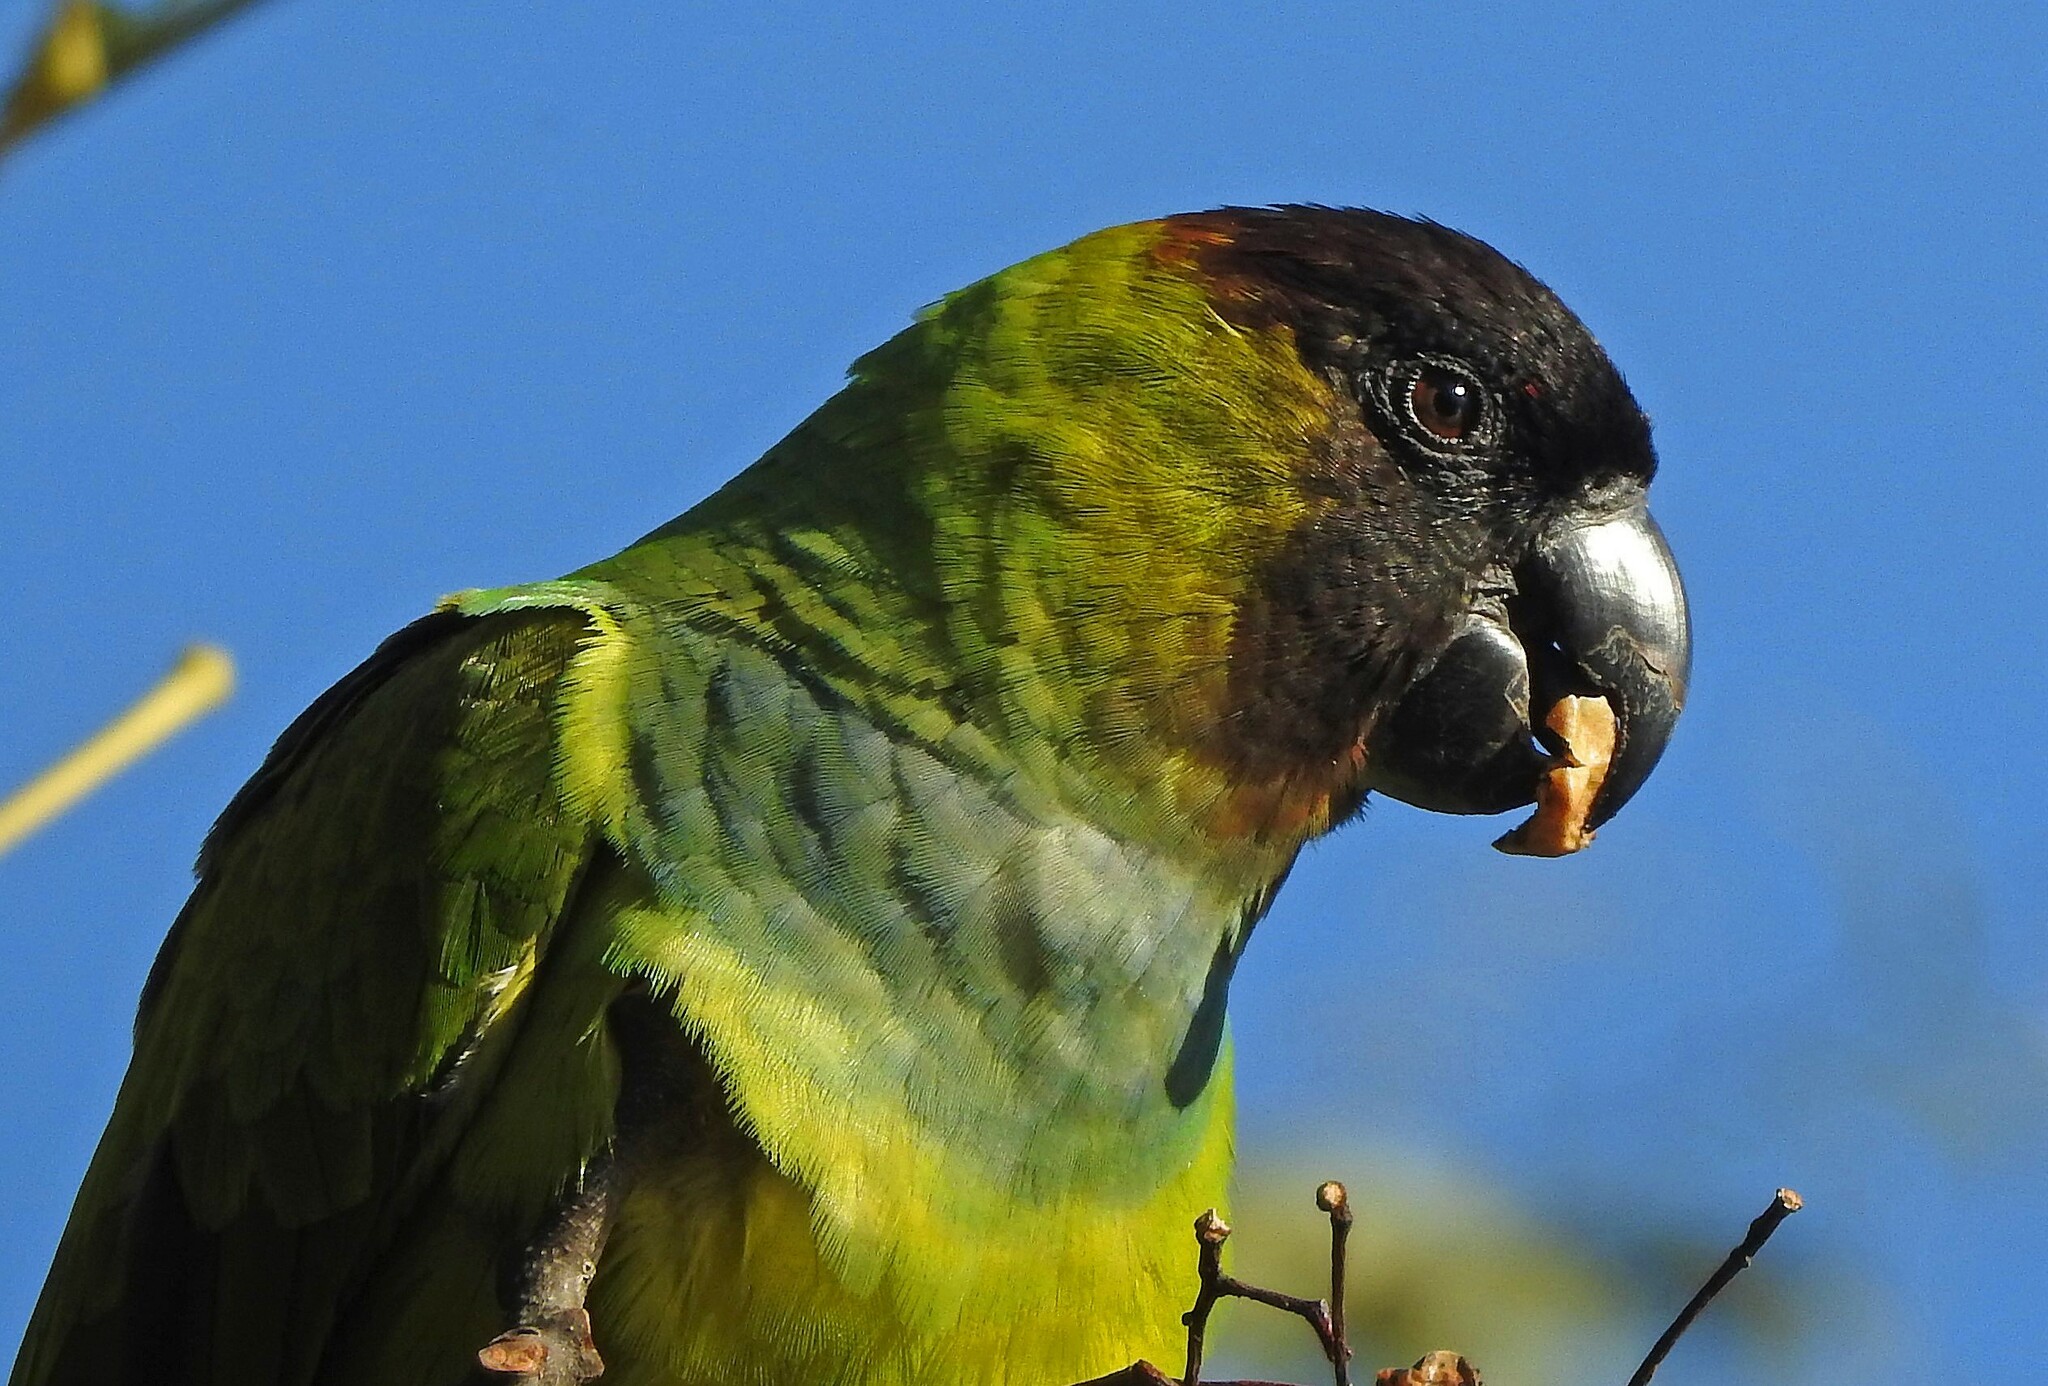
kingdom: Animalia
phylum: Chordata
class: Aves
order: Psittaciformes
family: Psittacidae
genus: Nandayus
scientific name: Nandayus nenday
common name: Nanday parakeet
